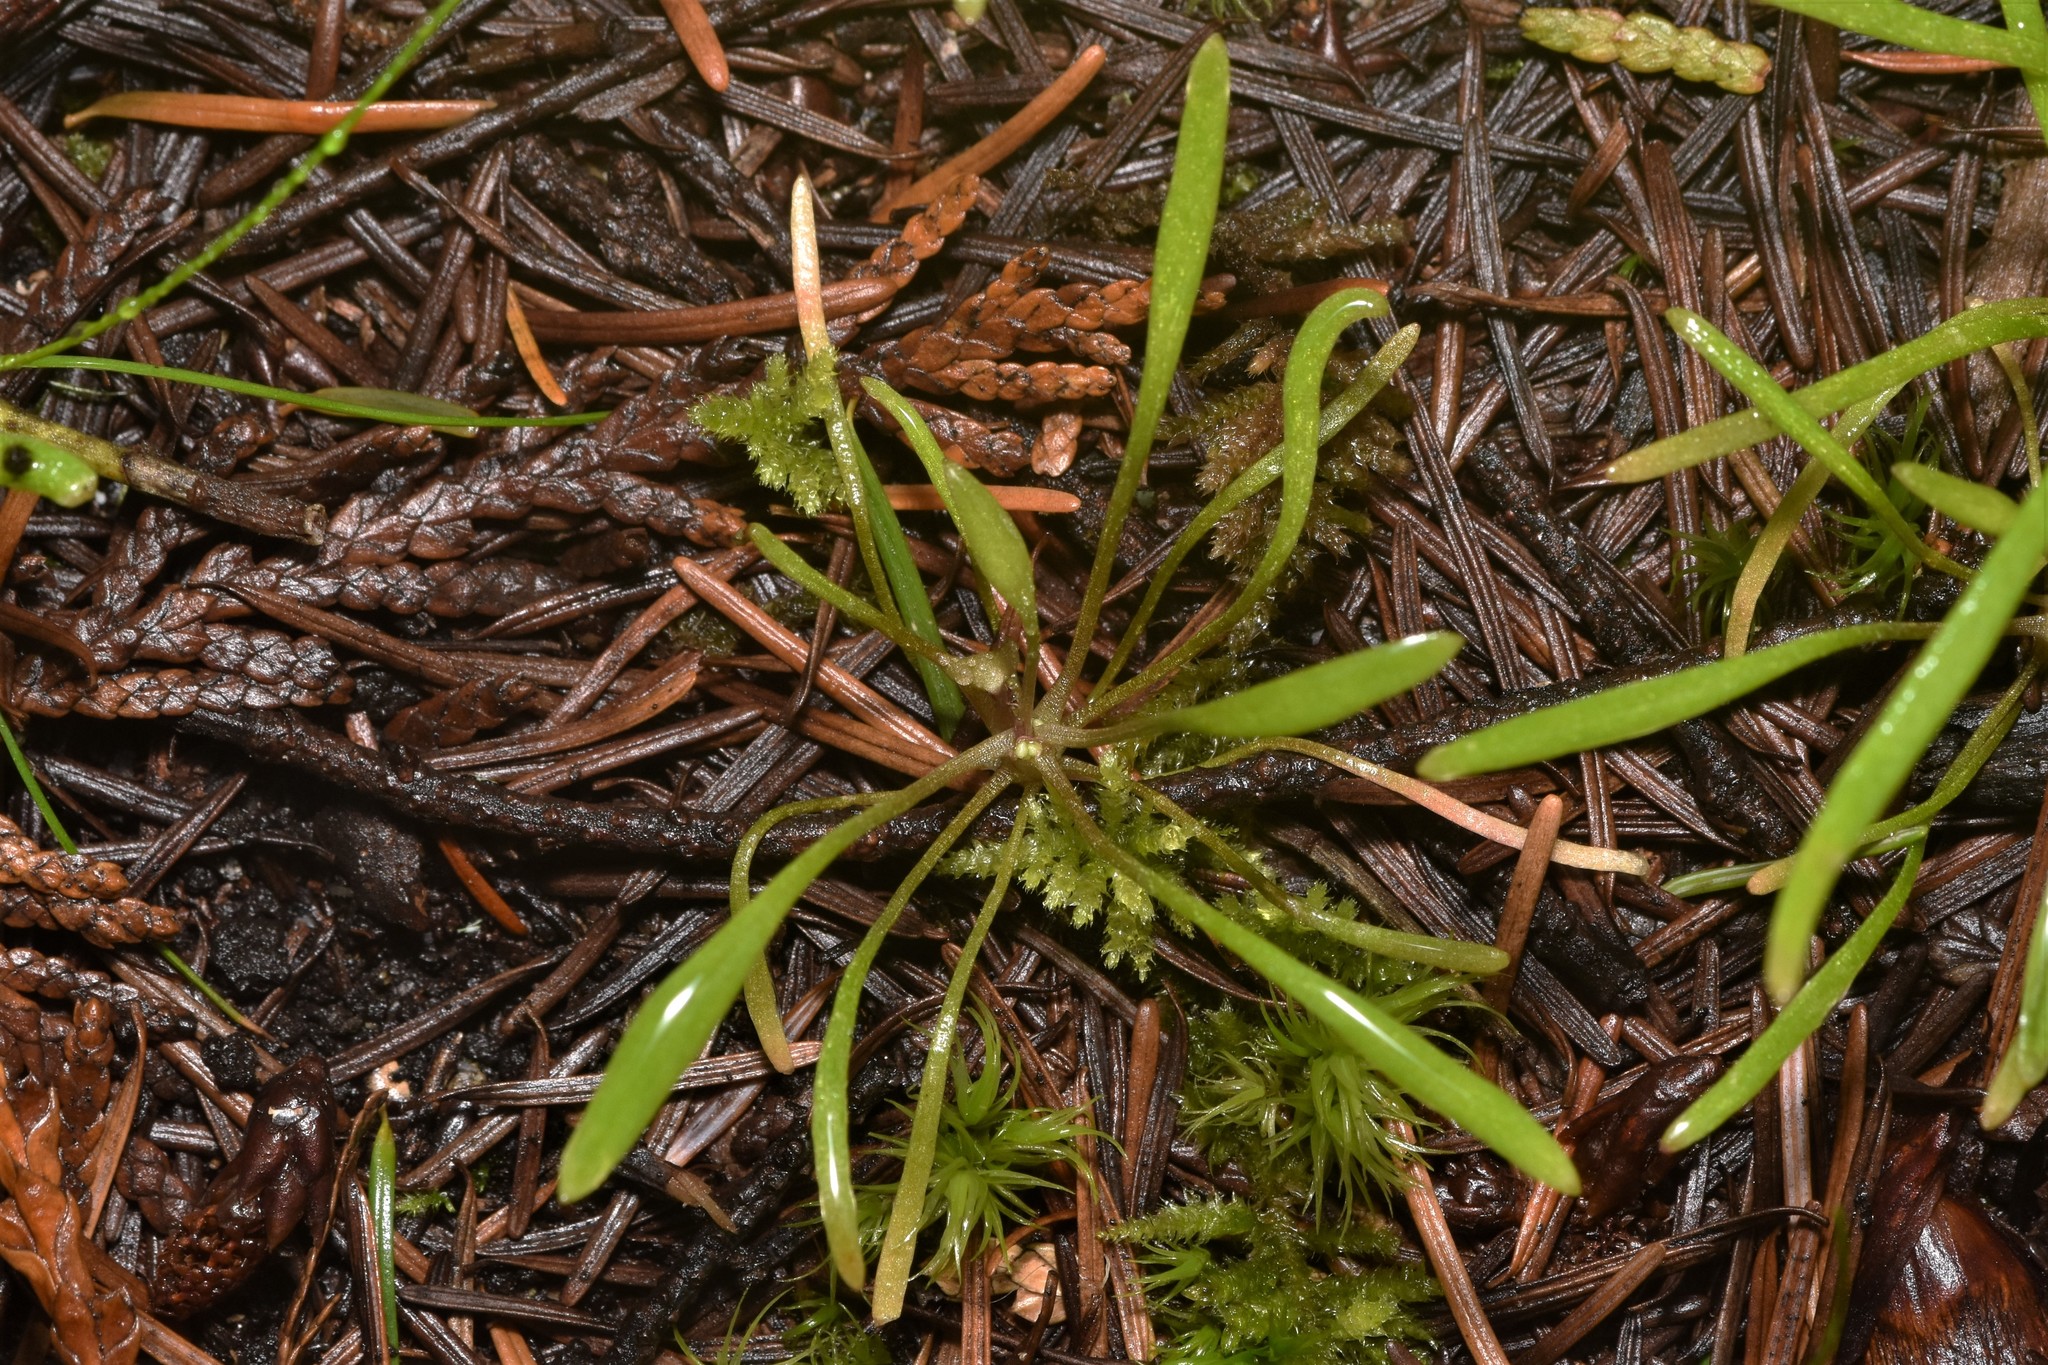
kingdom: Plantae
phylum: Tracheophyta
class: Magnoliopsida
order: Caryophyllales
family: Montiaceae
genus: Claytonia
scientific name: Claytonia parviflora
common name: Indian-lettuce
